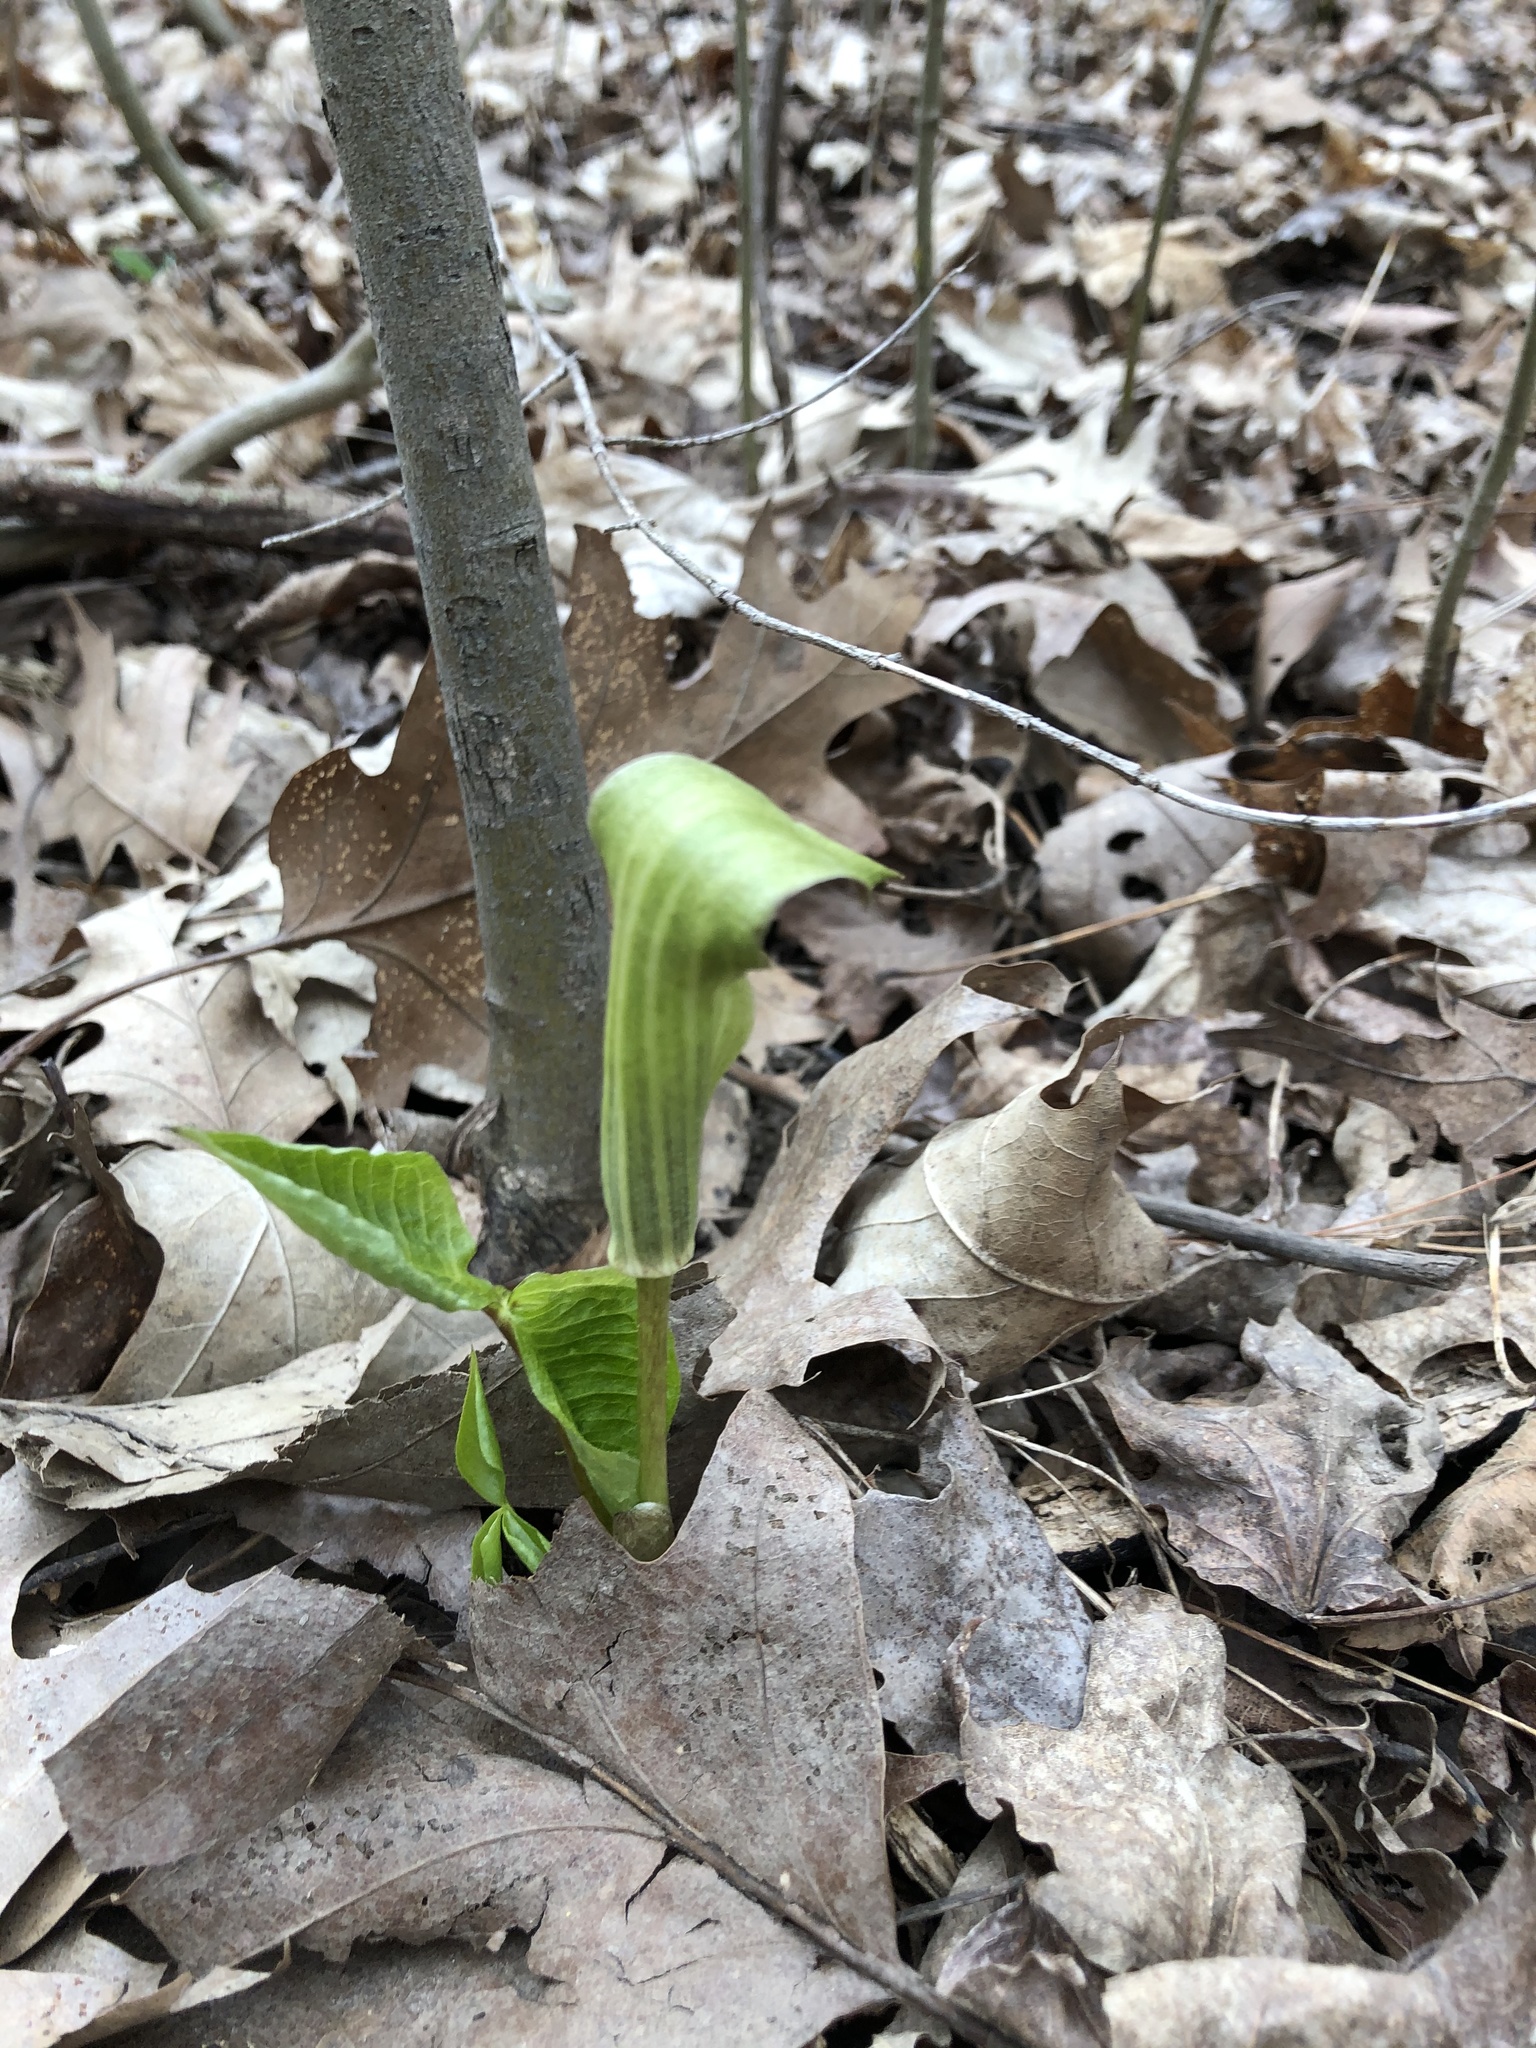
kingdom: Plantae
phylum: Tracheophyta
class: Liliopsida
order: Alismatales
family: Araceae
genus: Arisaema
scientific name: Arisaema triphyllum
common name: Jack-in-the-pulpit
